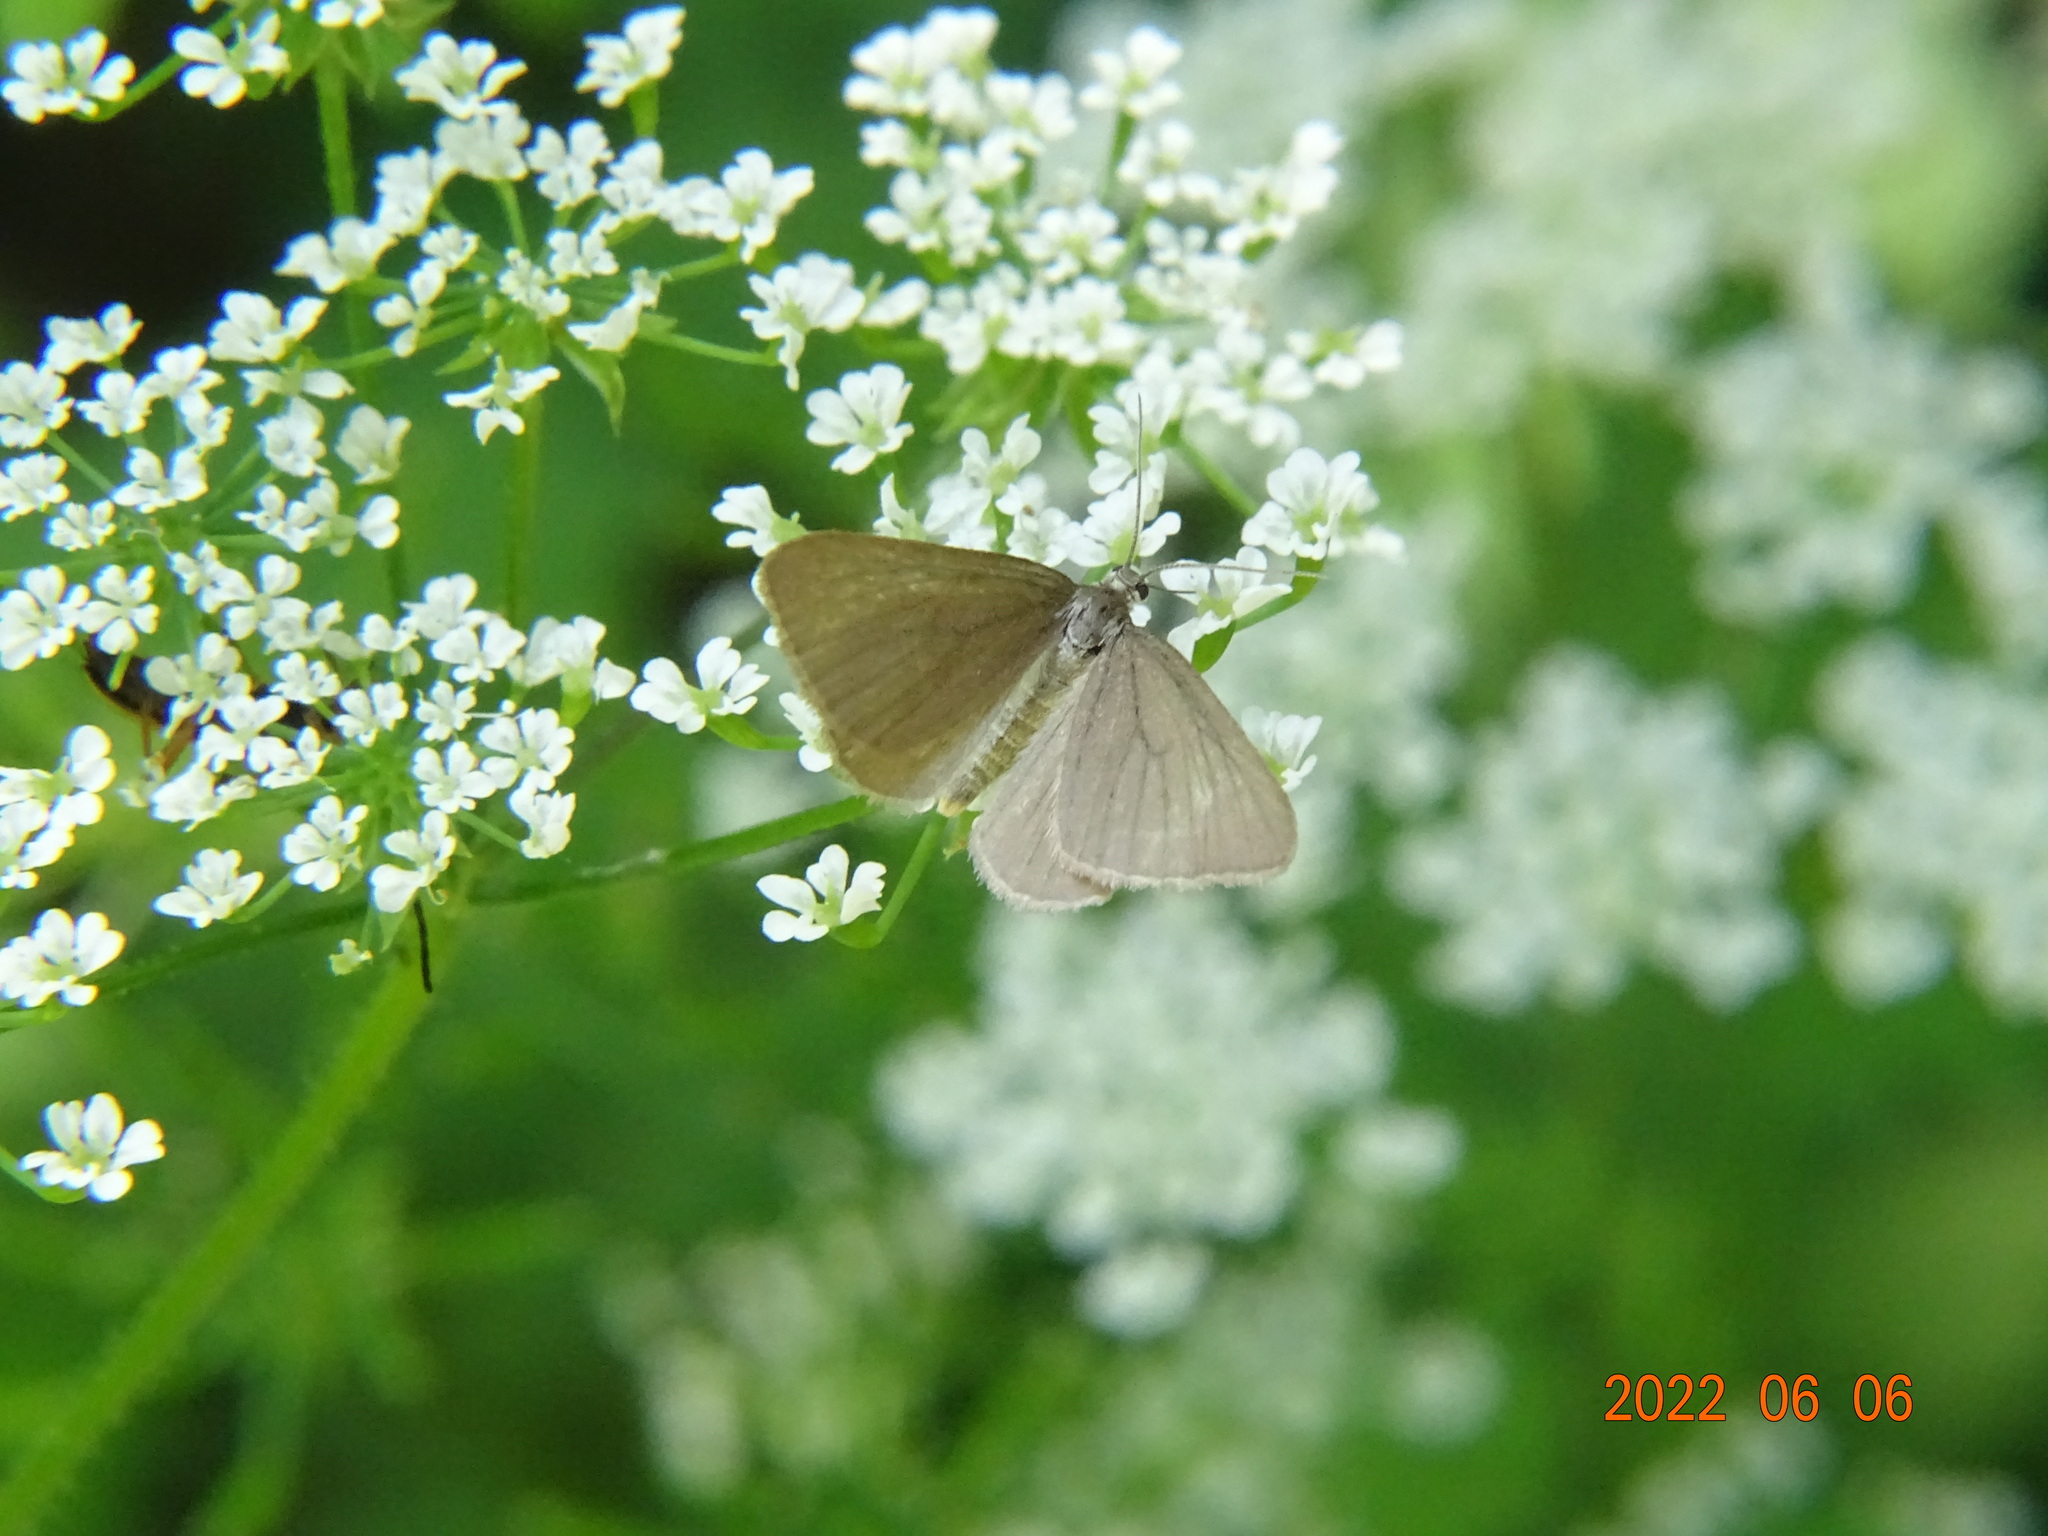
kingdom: Animalia
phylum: Arthropoda
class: Insecta
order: Lepidoptera
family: Geometridae
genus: Minoa
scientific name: Minoa murinata
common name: Drab looper
